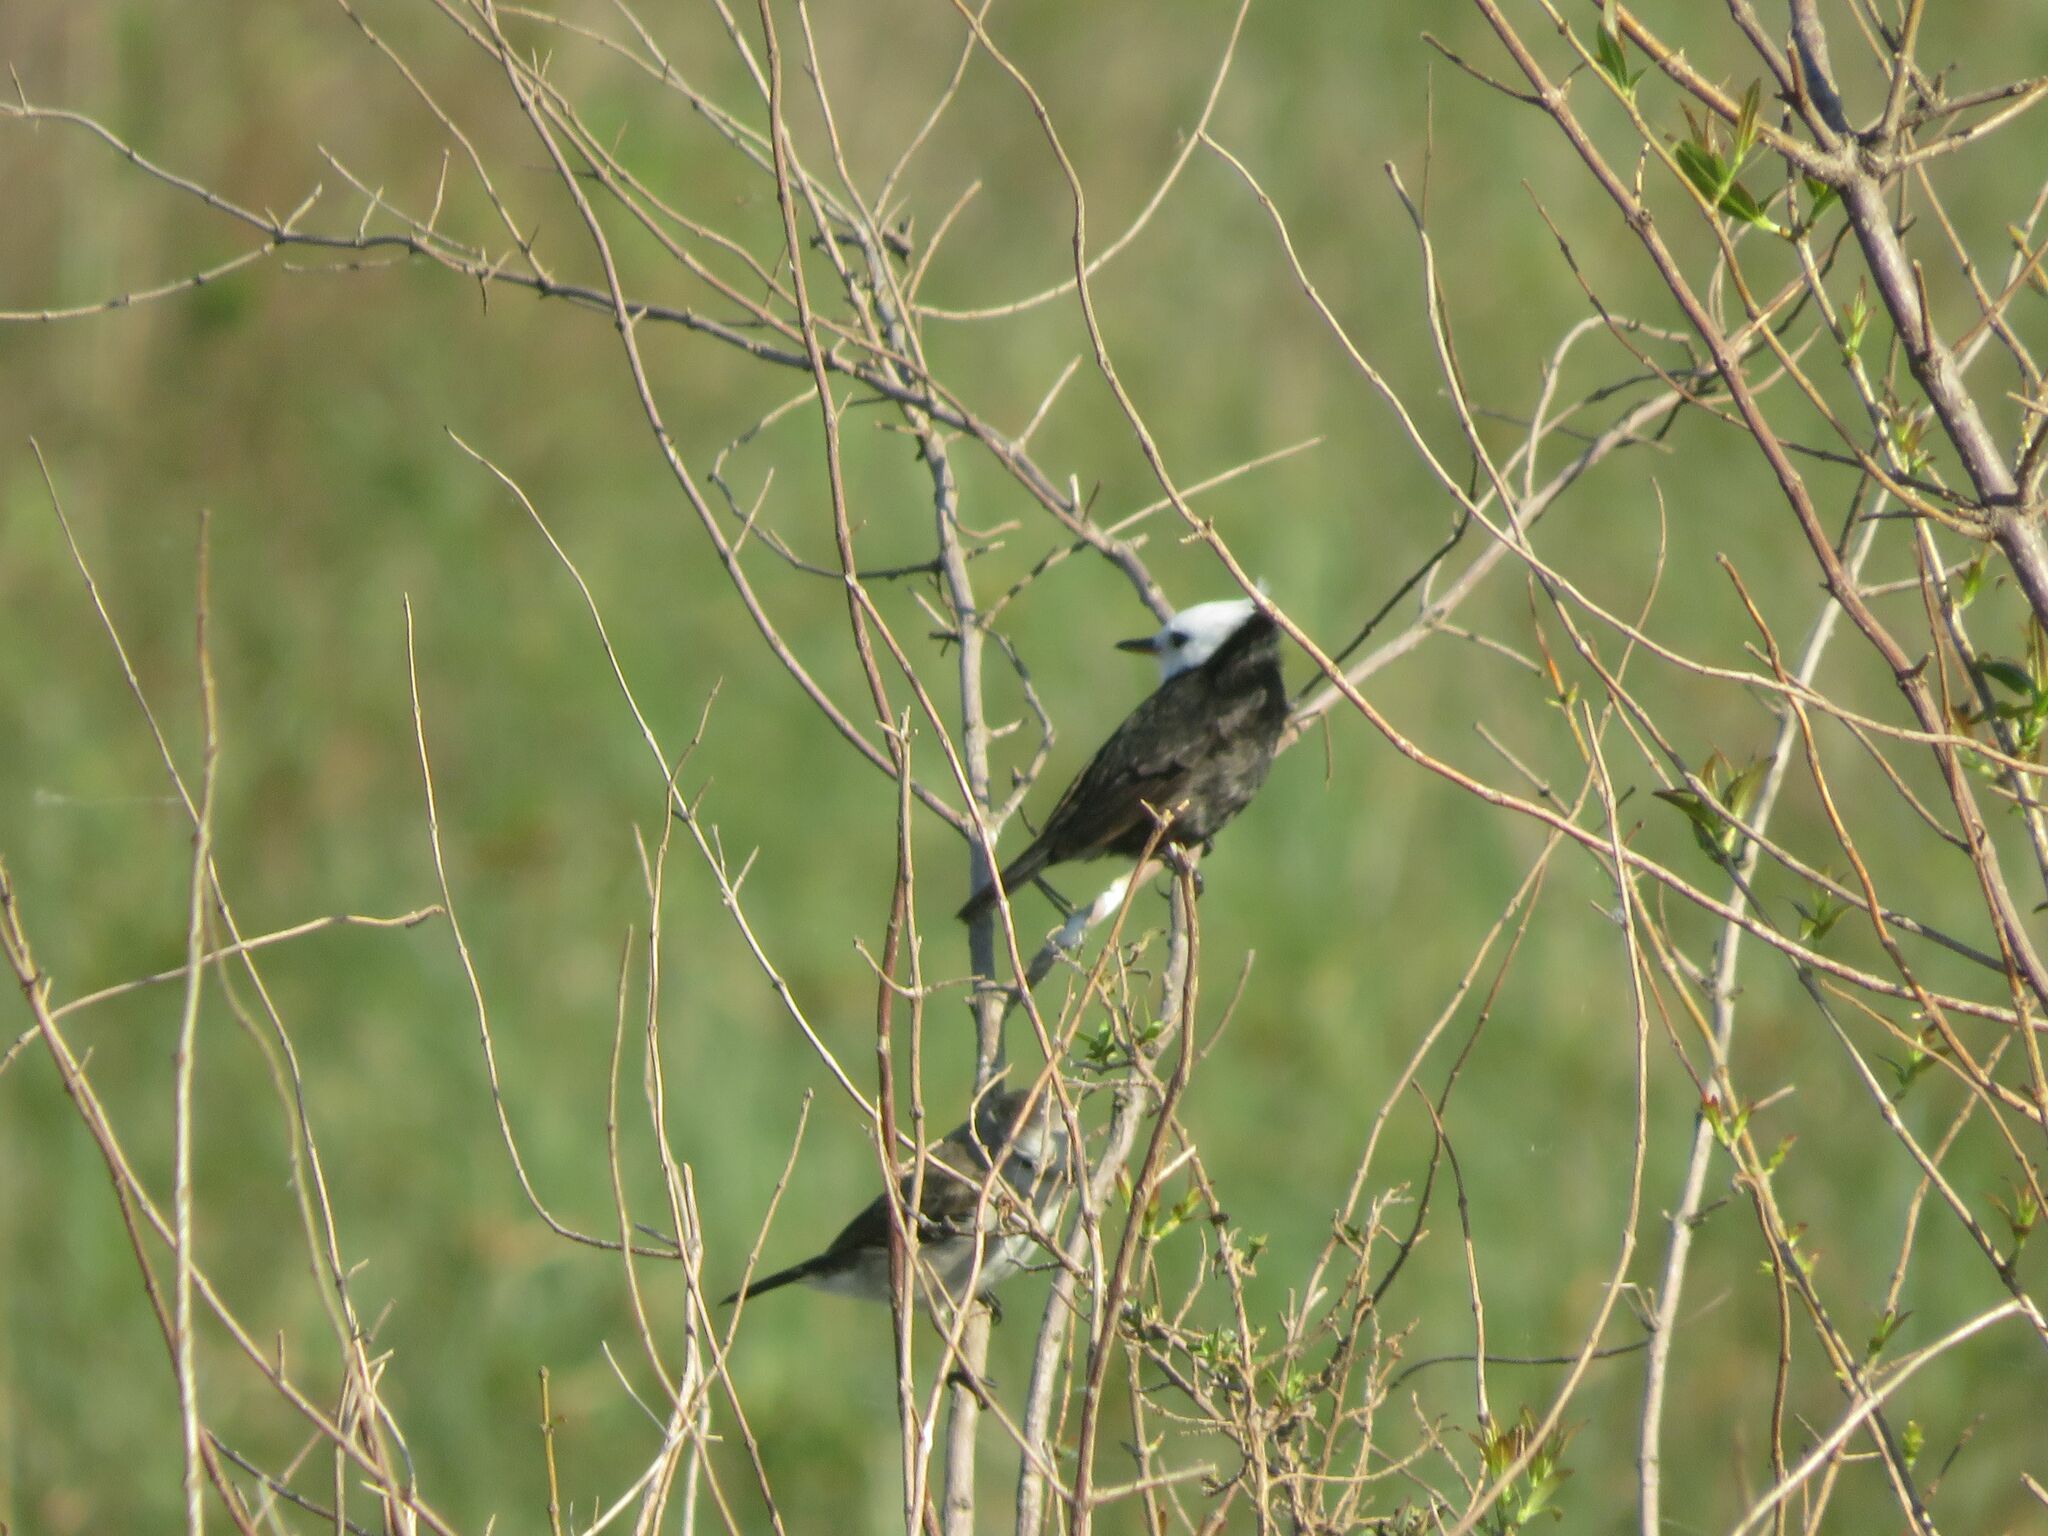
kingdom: Animalia
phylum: Chordata
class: Aves
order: Passeriformes
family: Tyrannidae
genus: Arundinicola
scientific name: Arundinicola leucocephala
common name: White-headed marsh tyrant
